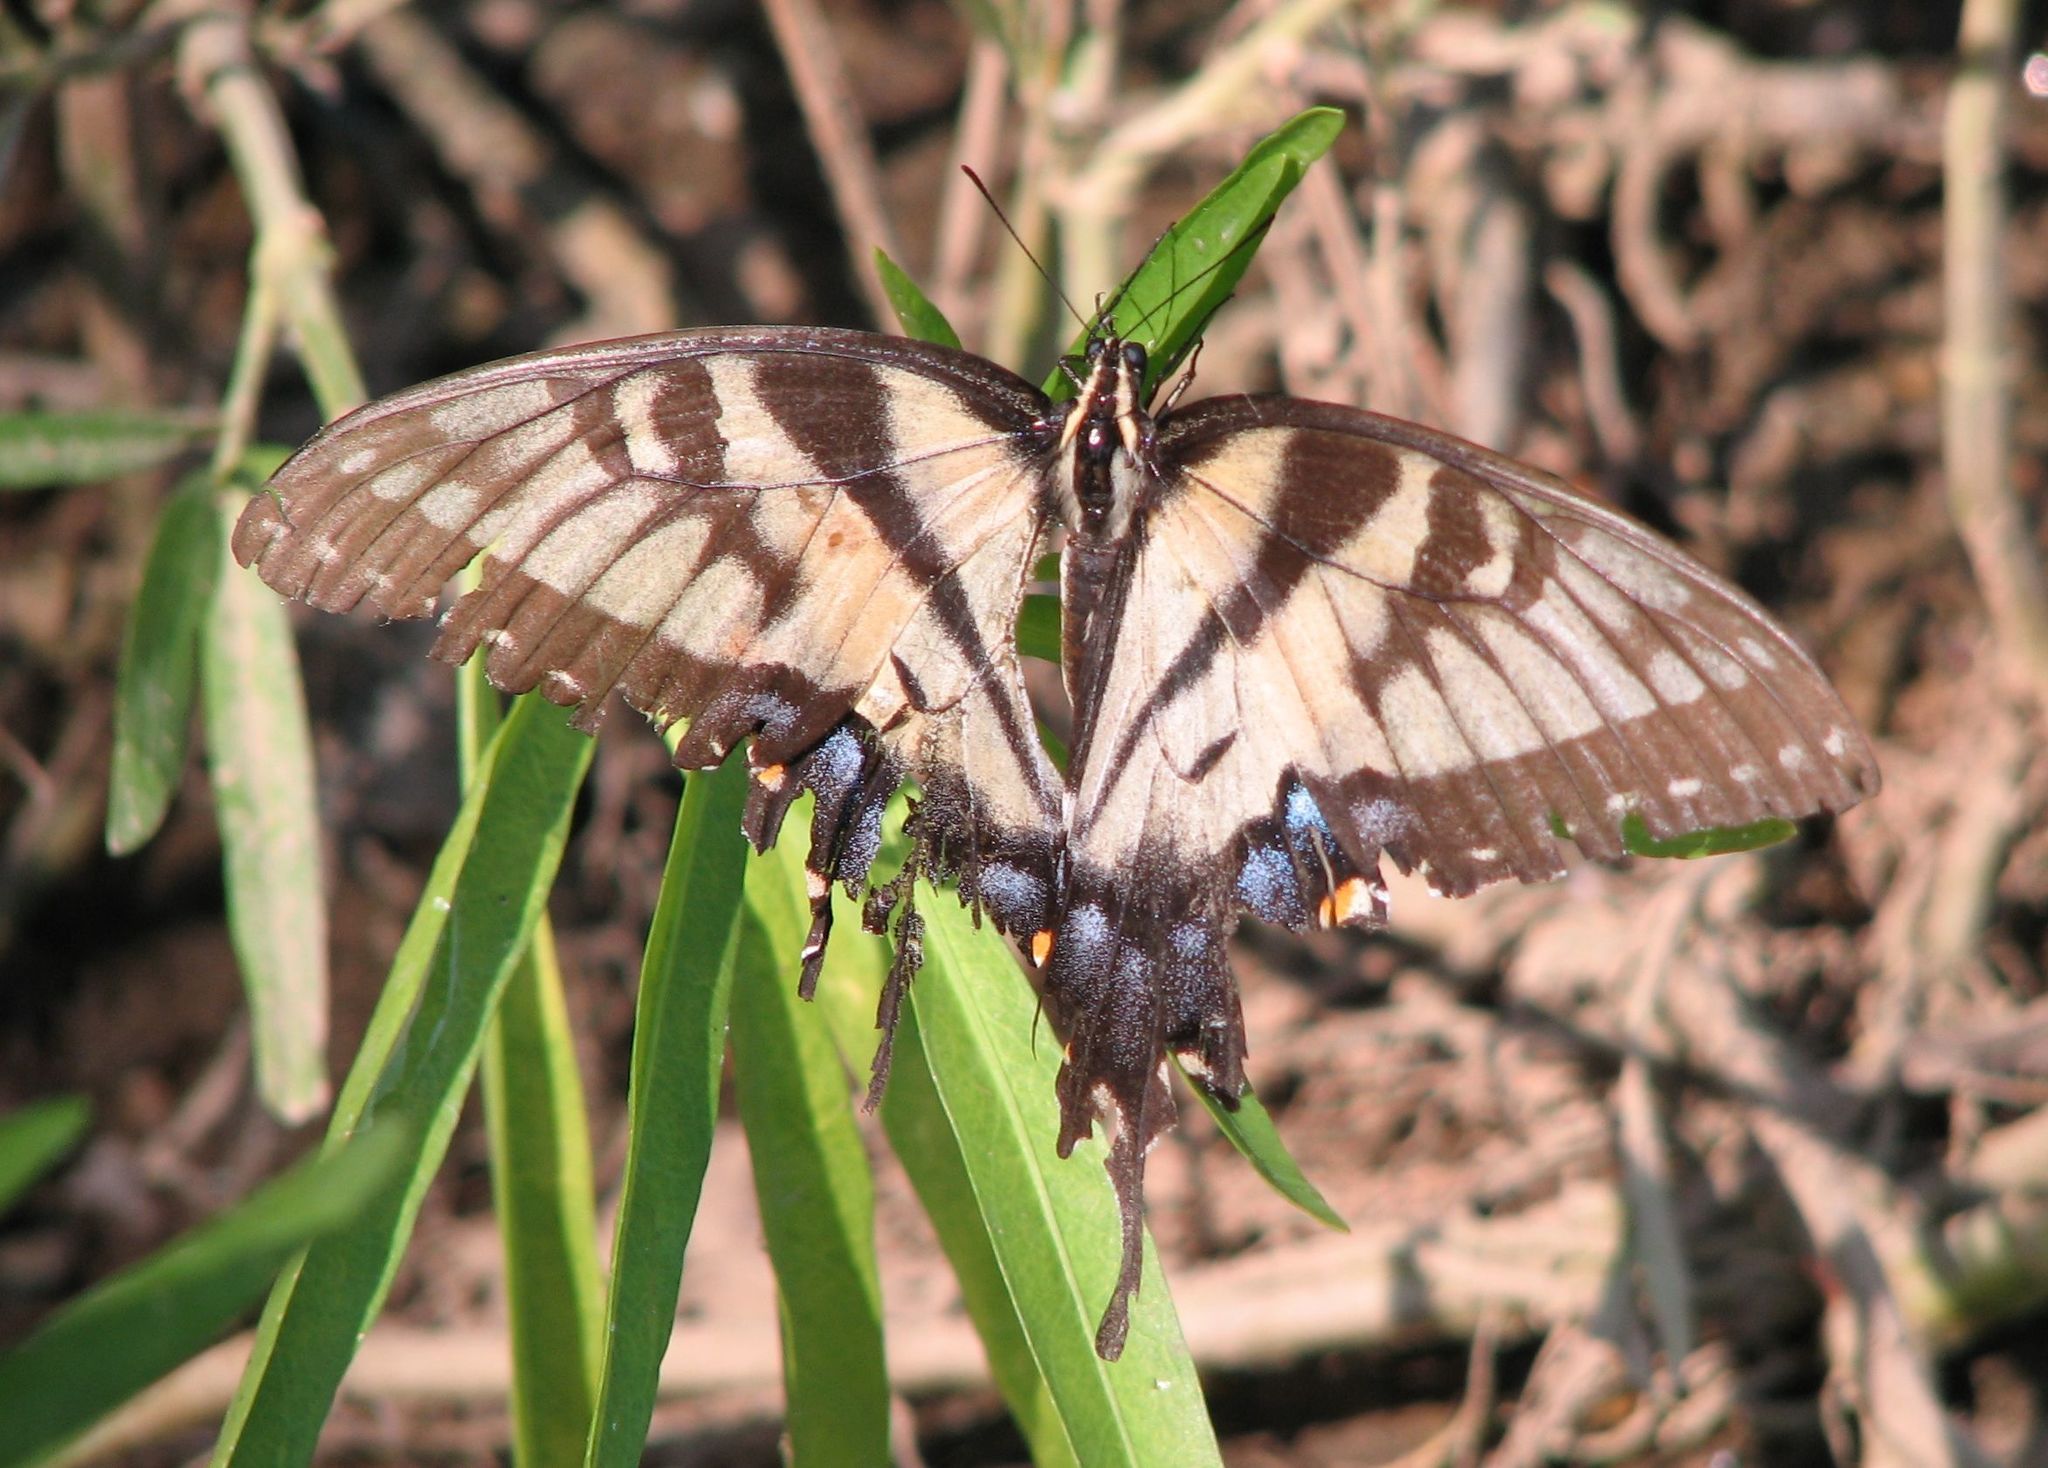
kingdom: Animalia
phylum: Arthropoda
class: Insecta
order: Lepidoptera
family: Papilionidae
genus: Papilio
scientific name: Papilio glaucus
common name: Tiger swallowtail
